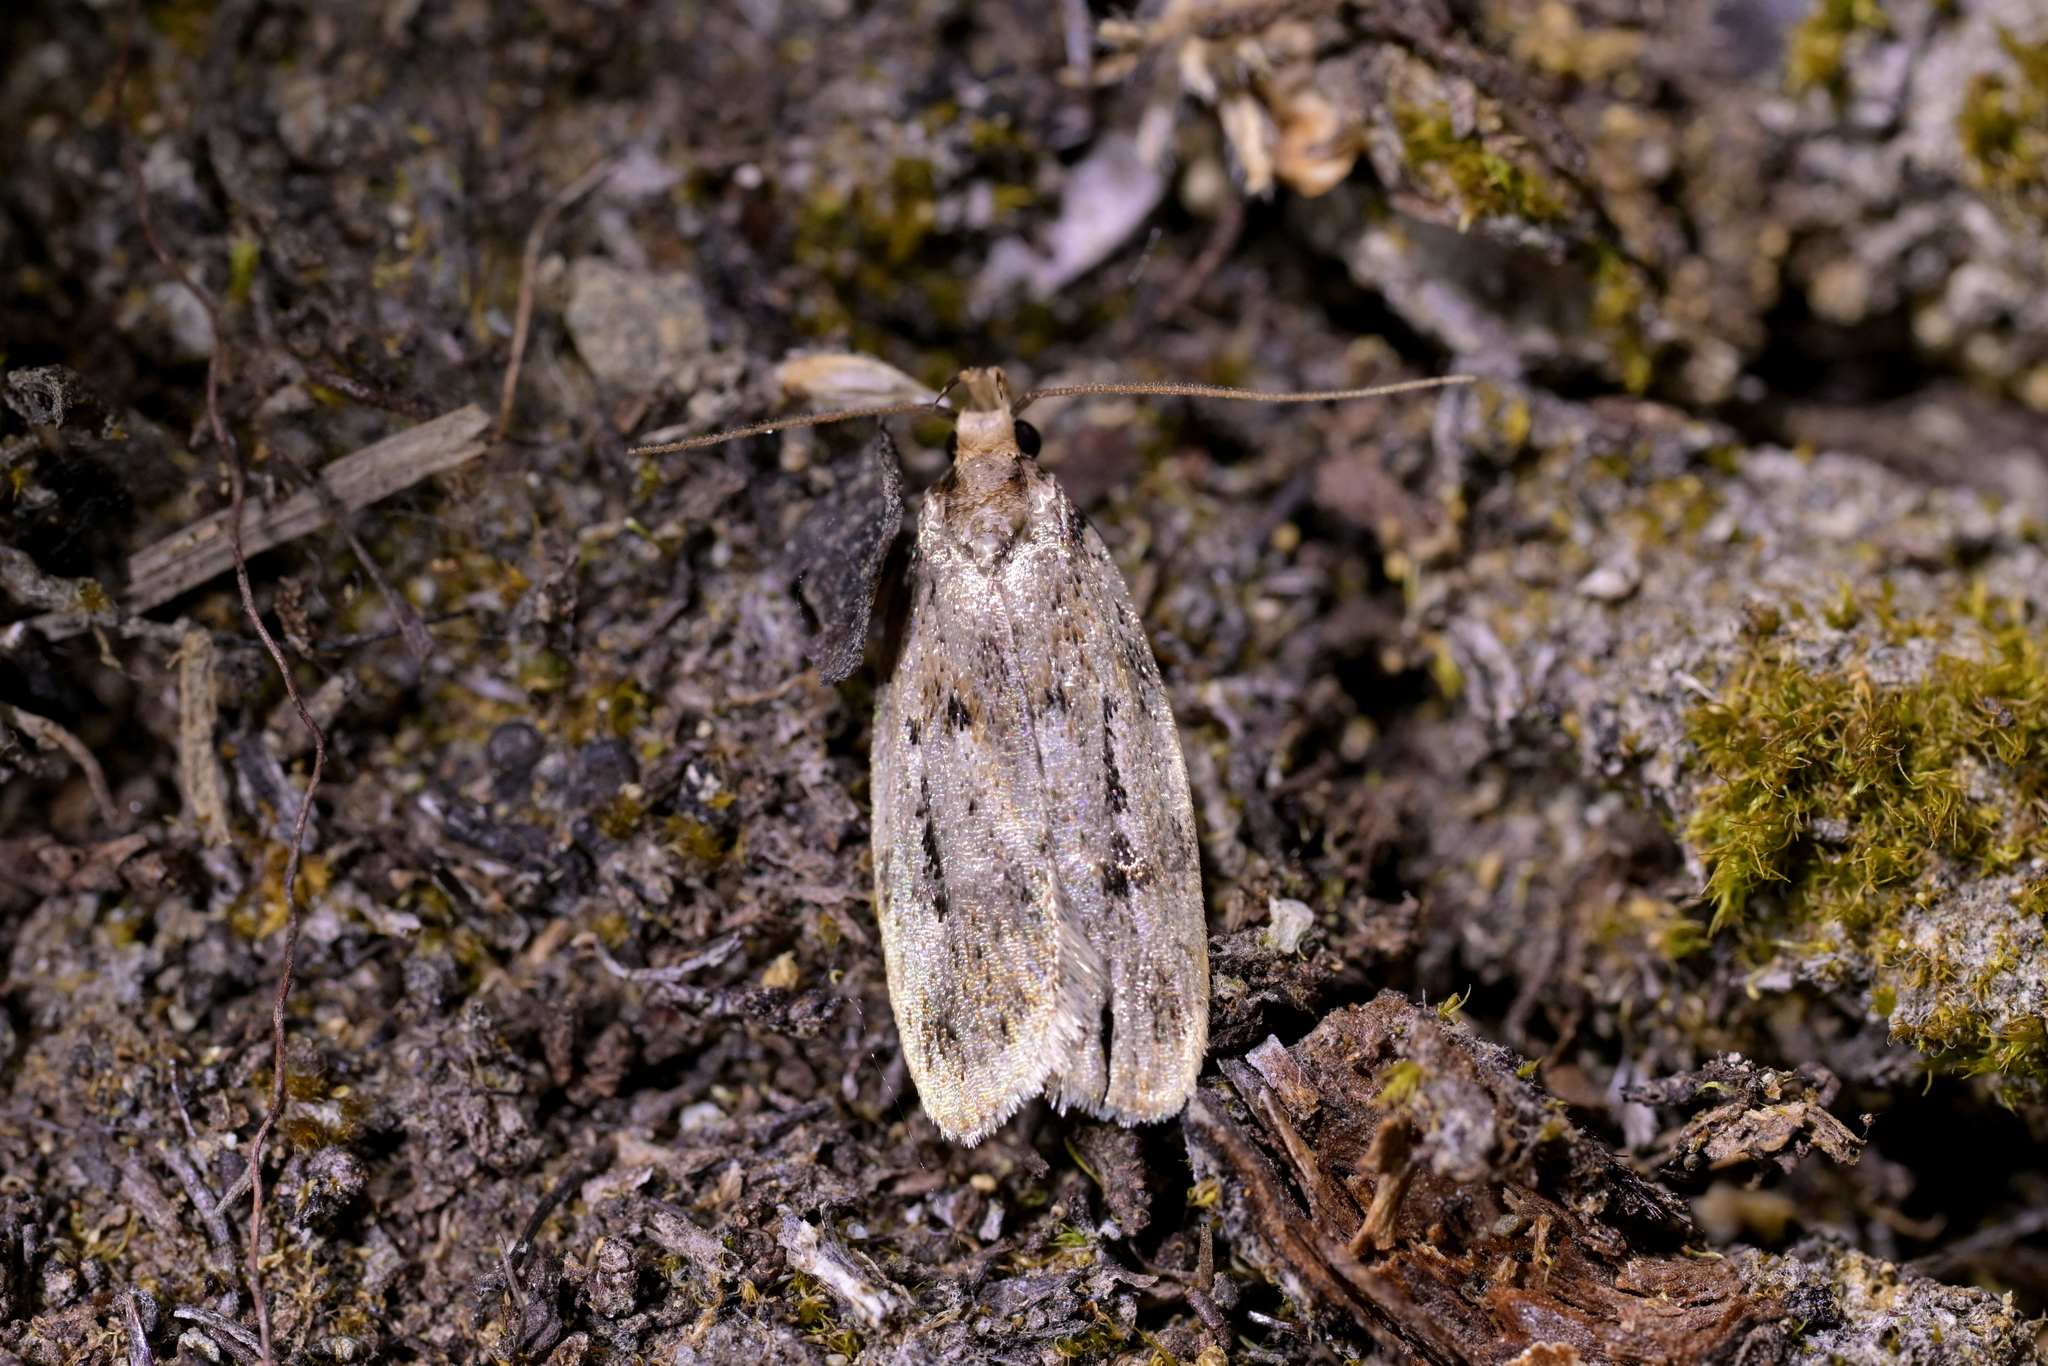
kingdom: Animalia
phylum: Arthropoda
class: Insecta
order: Lepidoptera
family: Oecophoridae
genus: Barea
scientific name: Barea exarcha
